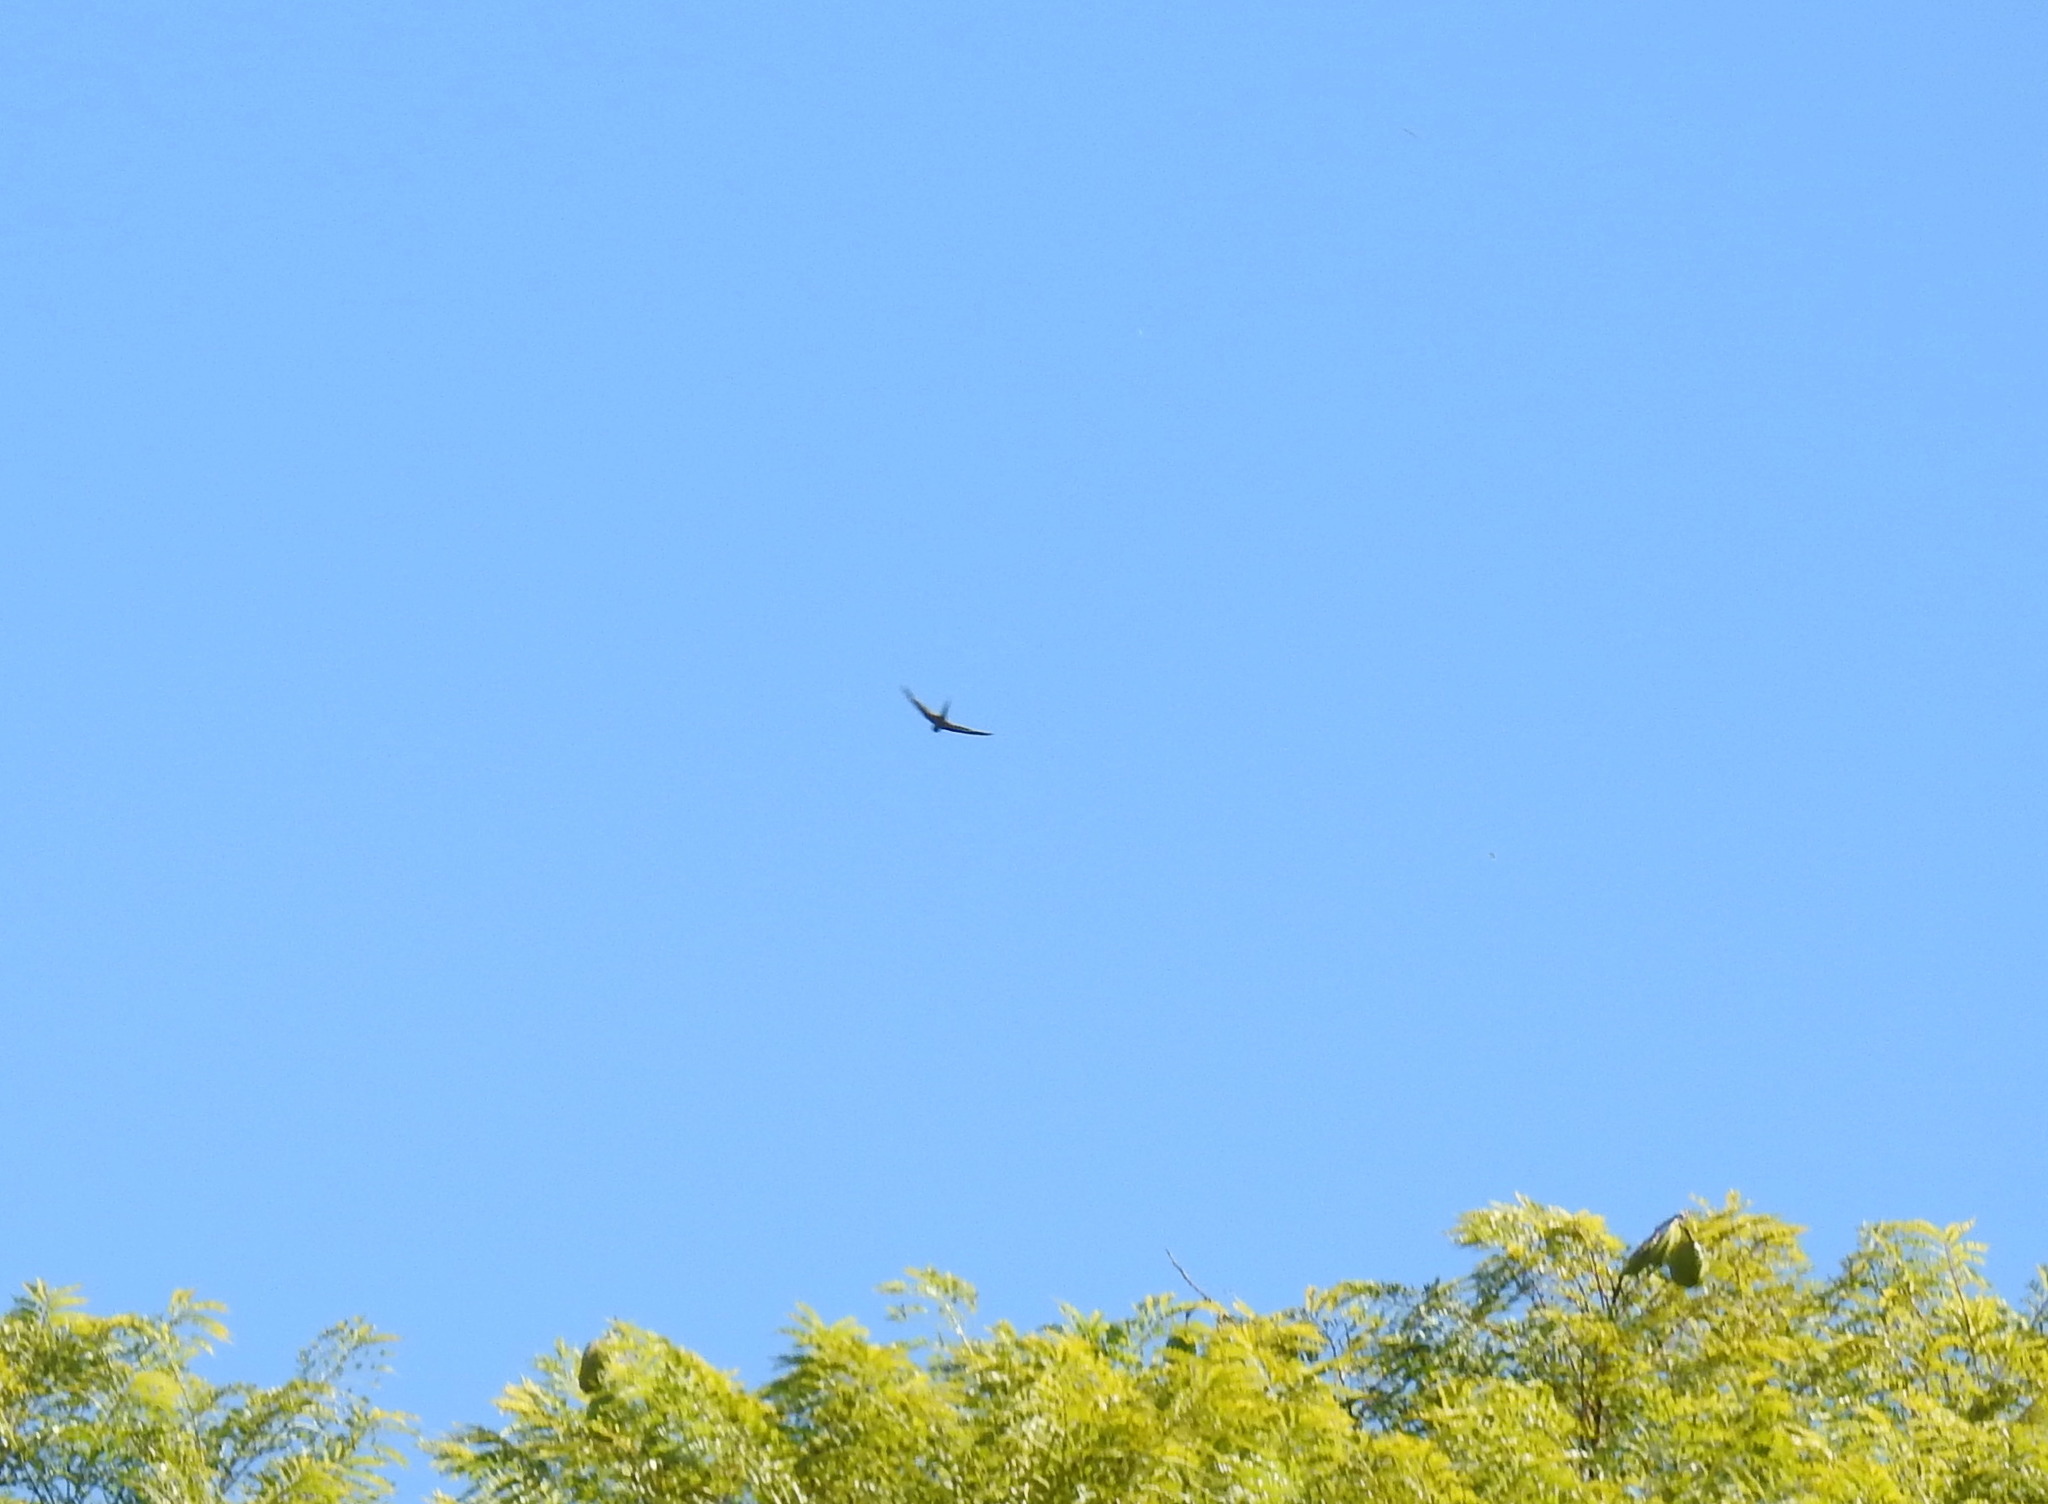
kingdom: Animalia
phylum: Chordata
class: Aves
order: Apodiformes
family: Apodidae
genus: Cypsiurus
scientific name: Cypsiurus parvus
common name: African palm swift
